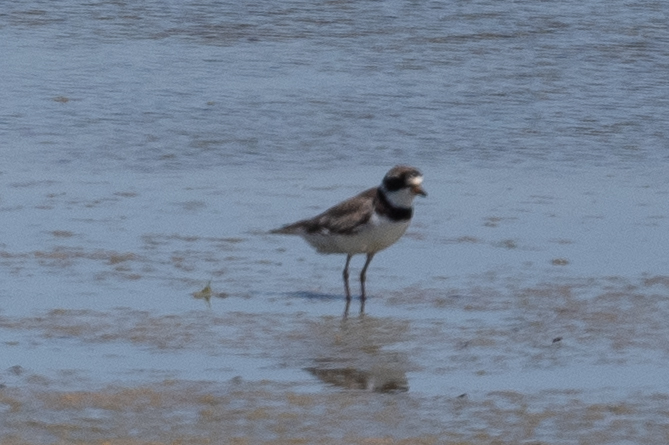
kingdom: Animalia
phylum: Chordata
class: Aves
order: Charadriiformes
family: Charadriidae
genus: Charadrius
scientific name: Charadrius semipalmatus
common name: Semipalmated plover
